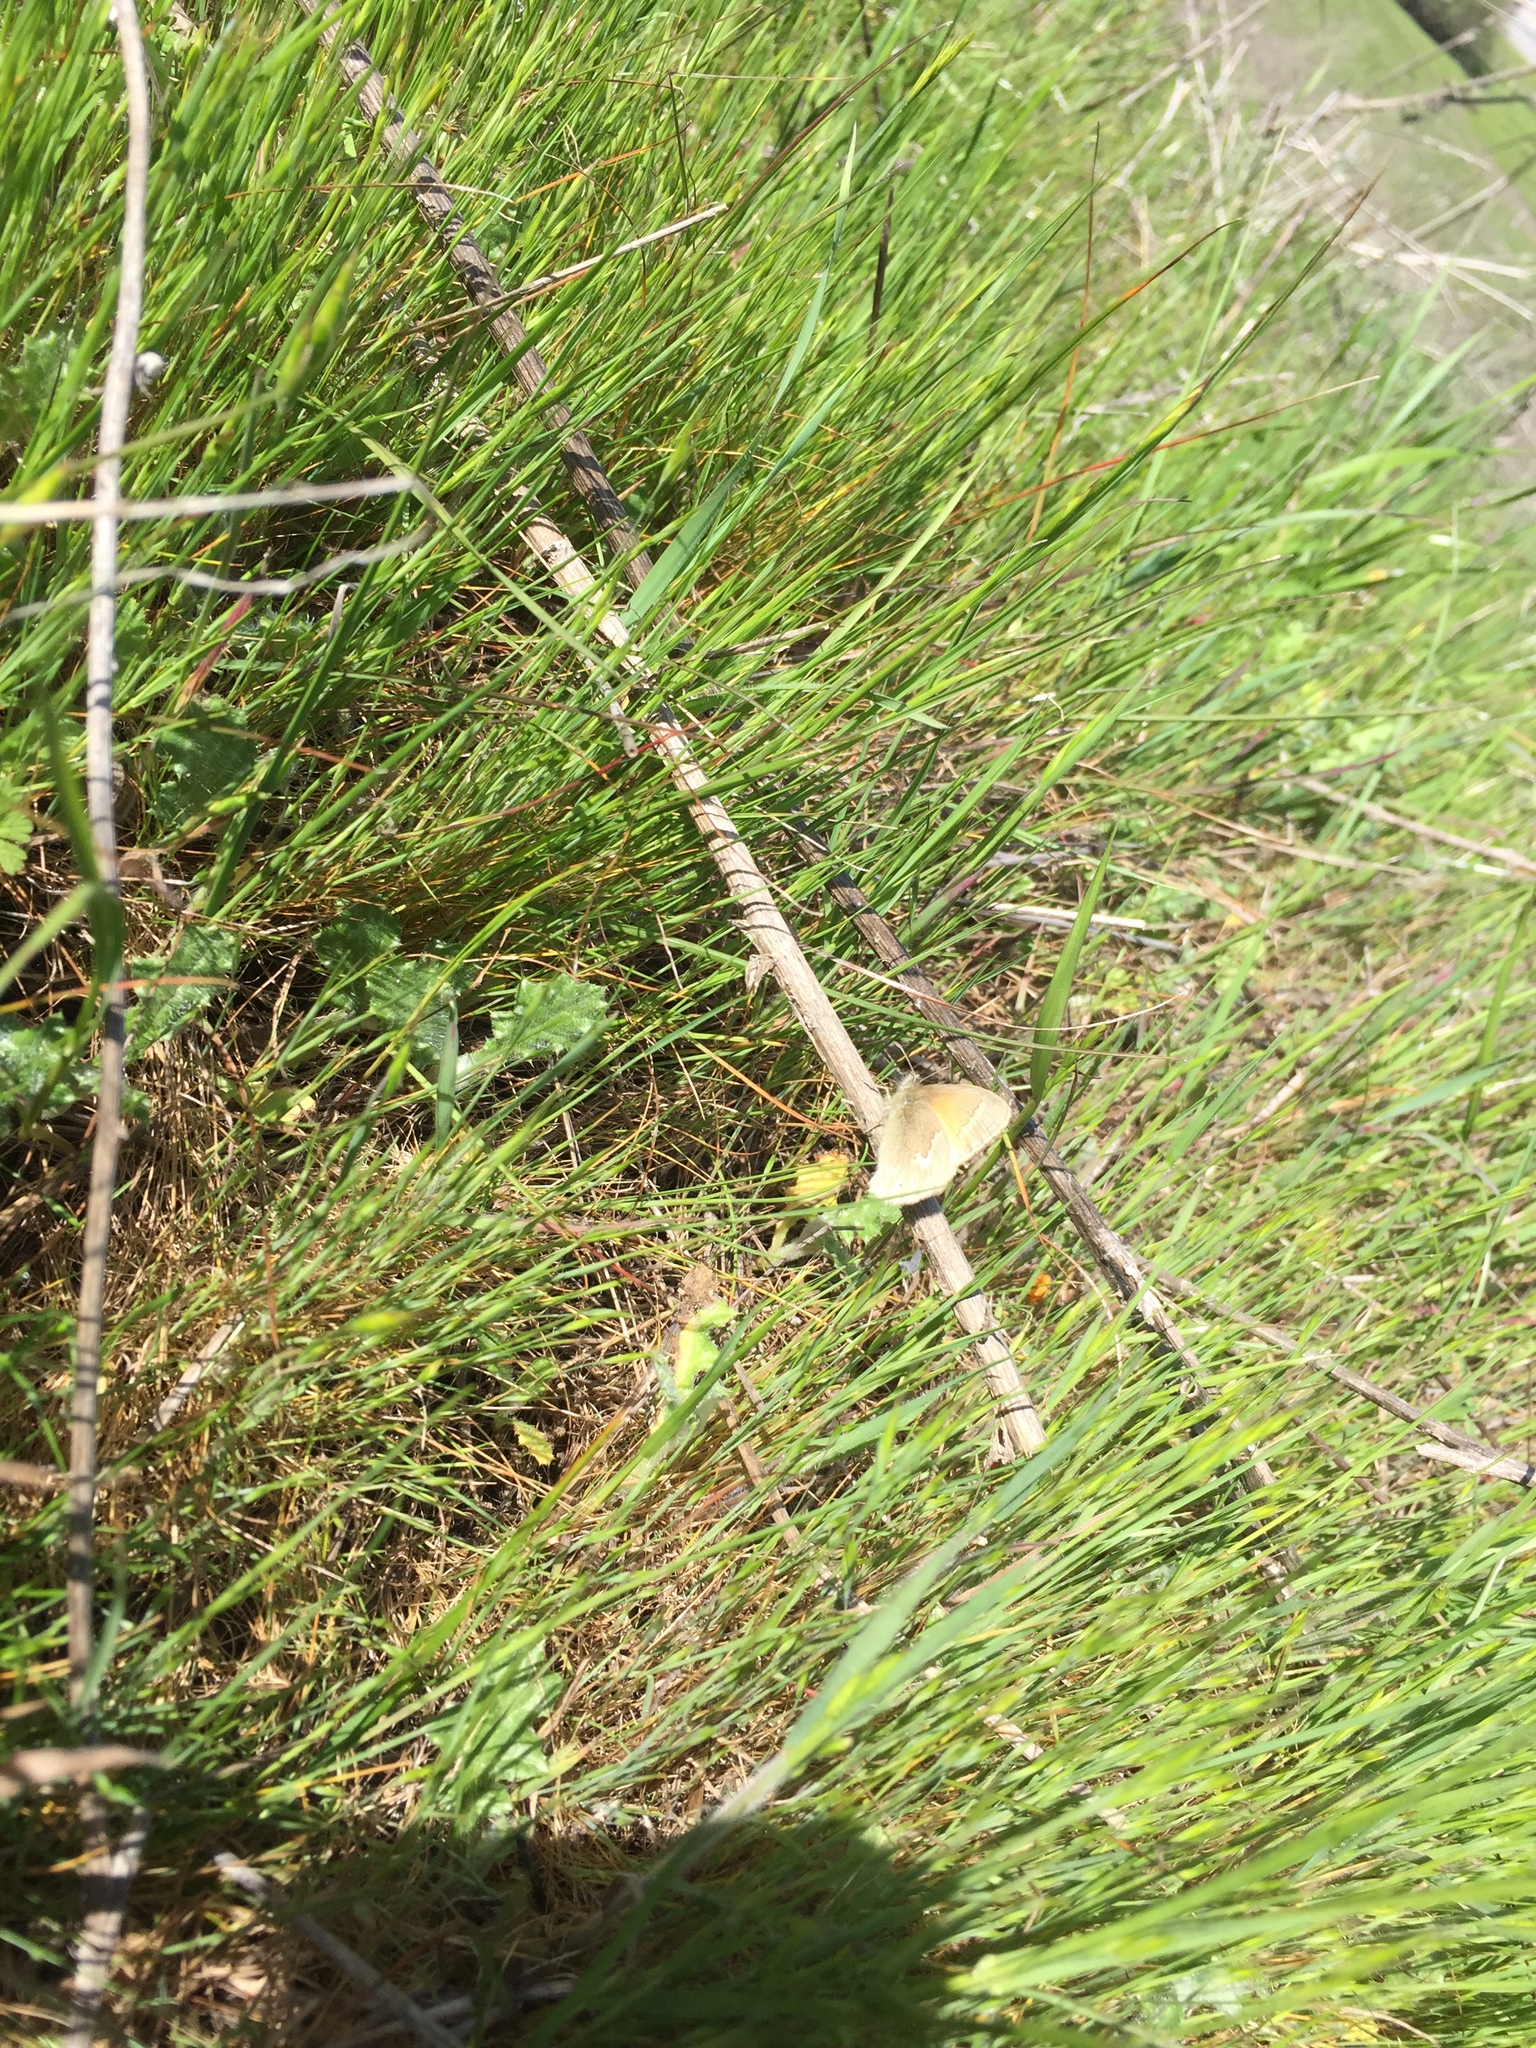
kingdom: Animalia
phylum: Arthropoda
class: Insecta
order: Lepidoptera
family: Nymphalidae
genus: Coenonympha
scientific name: Coenonympha california
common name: Common ringlet
